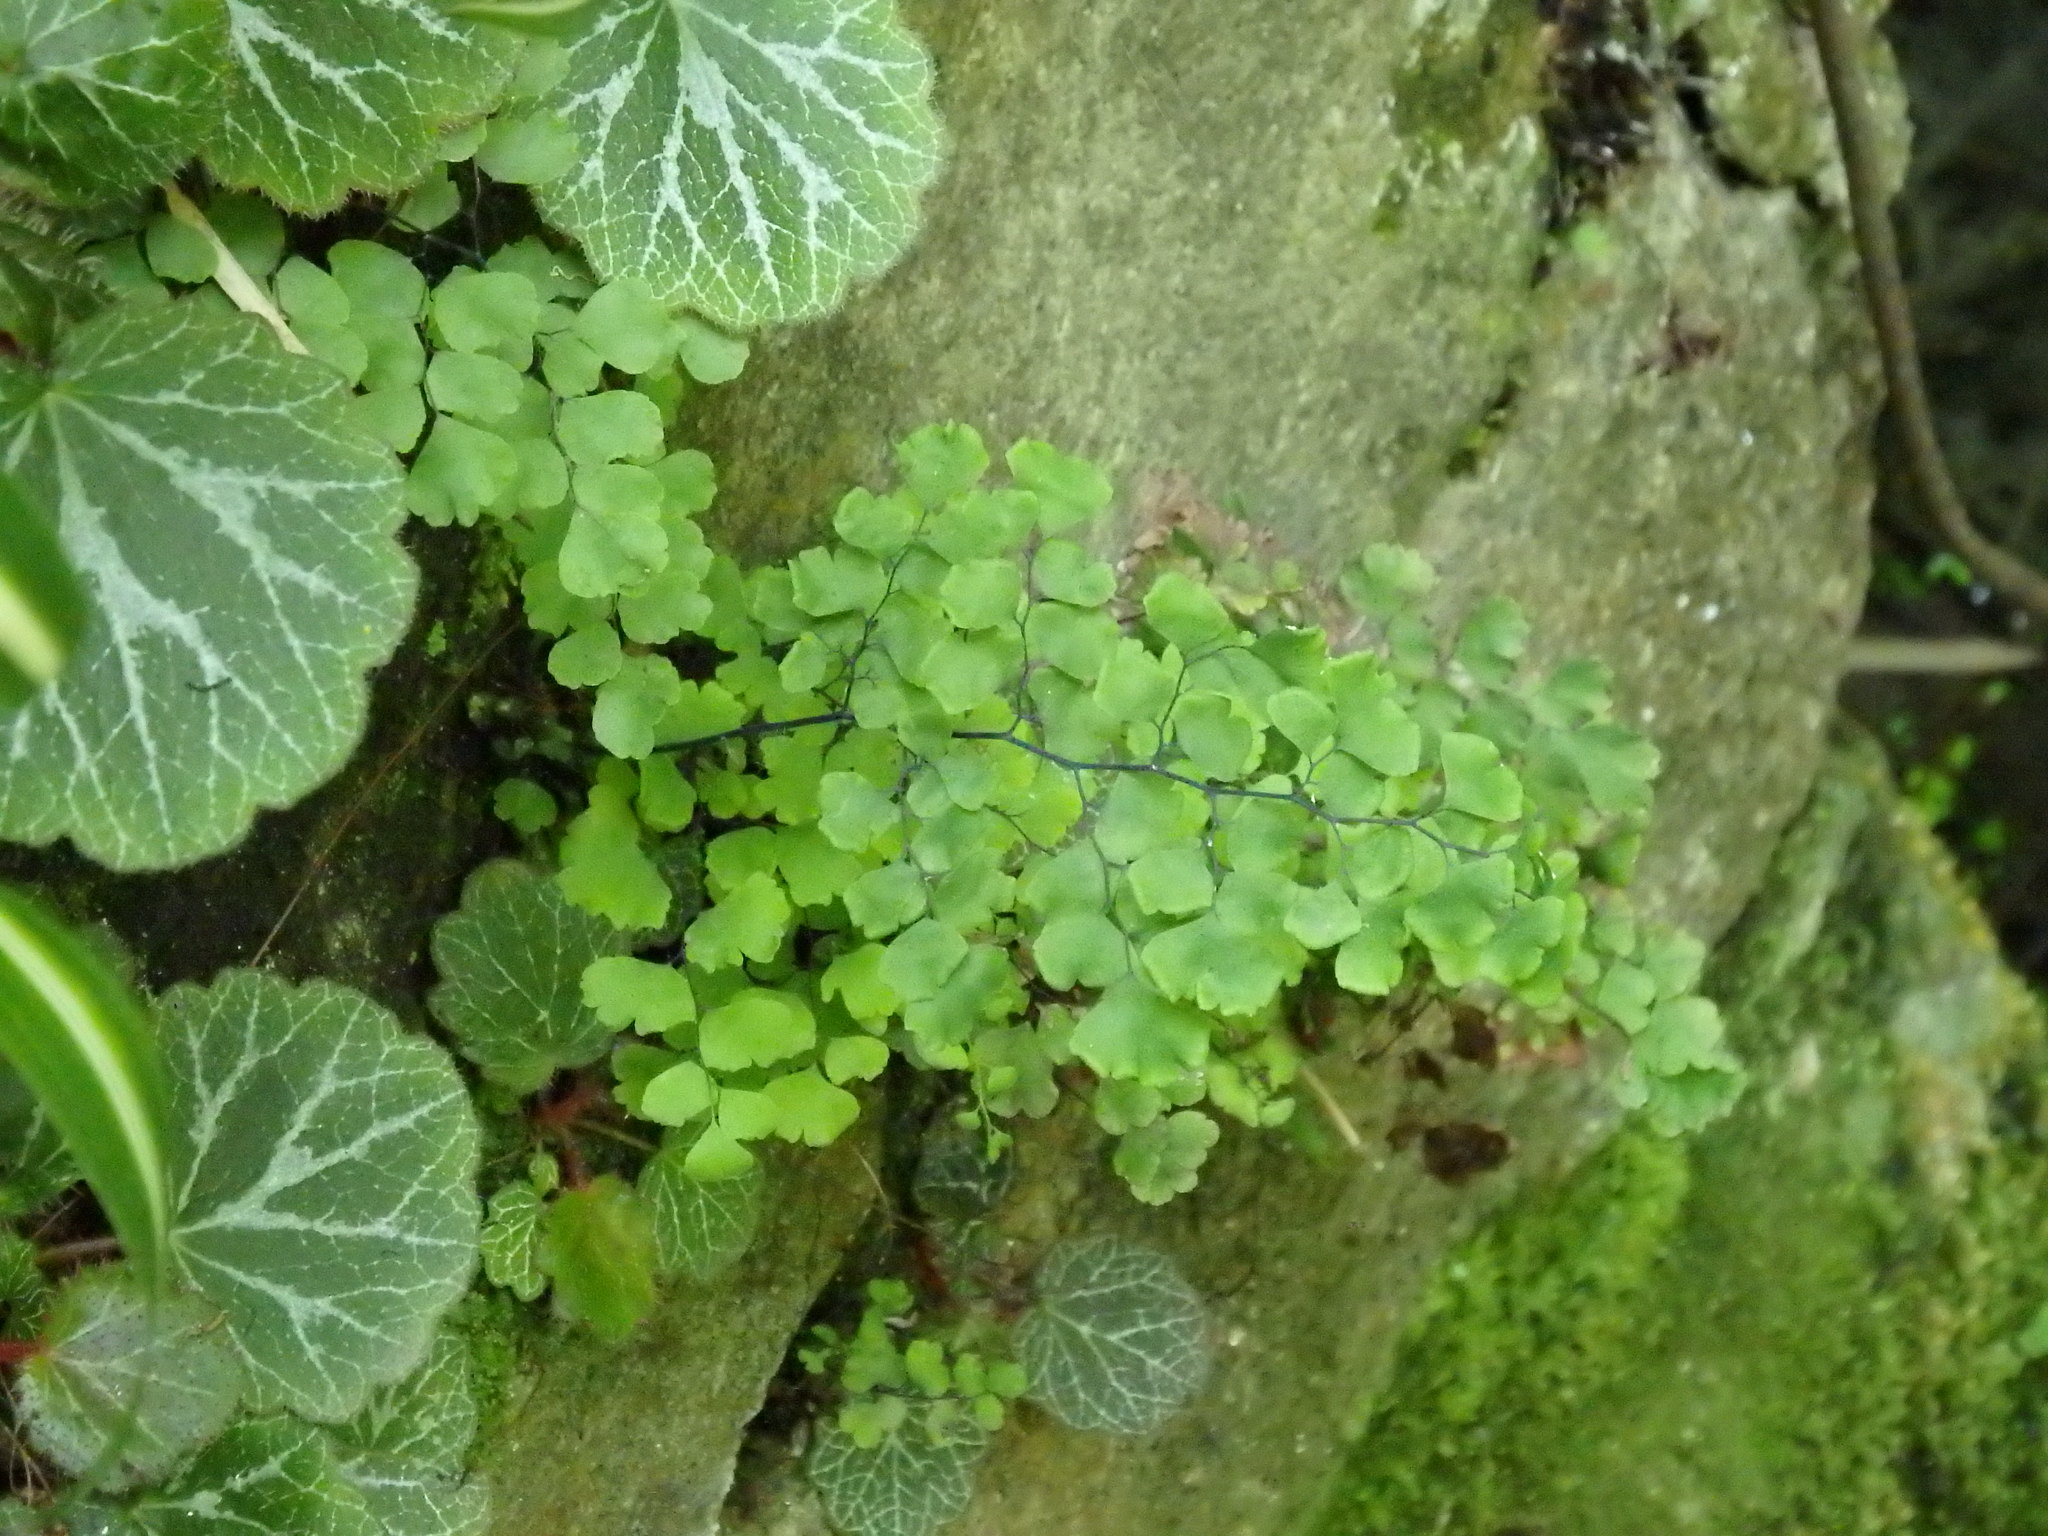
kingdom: Plantae
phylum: Tracheophyta
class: Polypodiopsida
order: Polypodiales
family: Pteridaceae
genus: Adiantum
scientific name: Adiantum capillus-veneris
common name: Maidenhair fern
